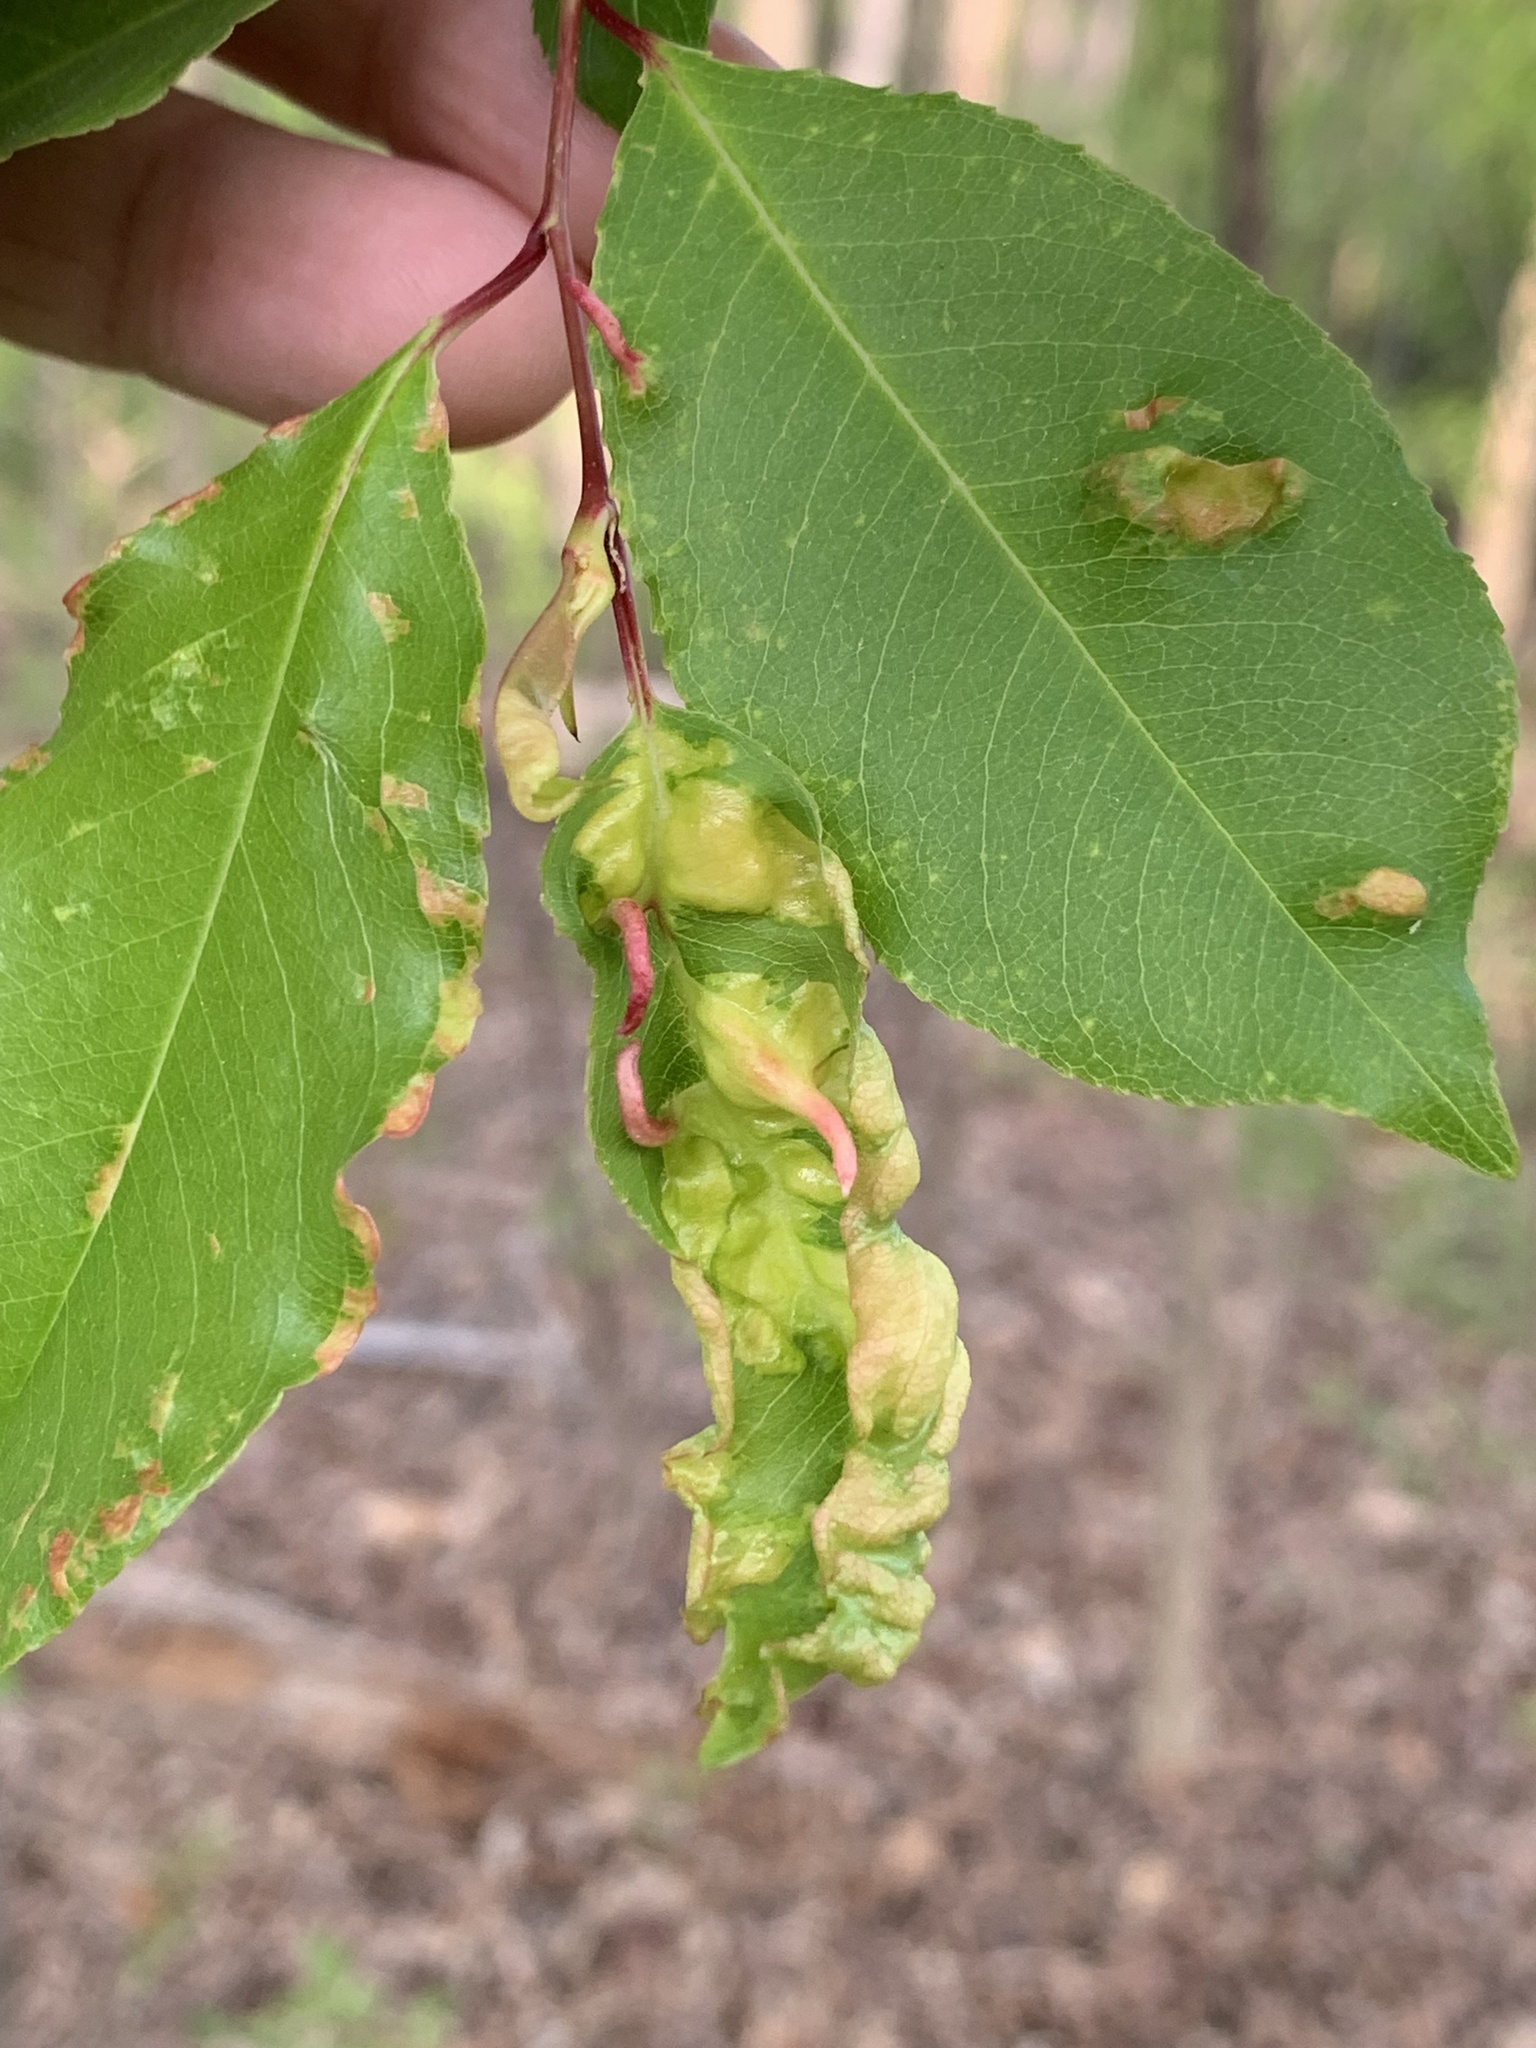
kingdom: Fungi
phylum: Ascomycota
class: Taphrinomycetes
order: Taphrinales
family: Taphrinaceae
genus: Taphrina
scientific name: Taphrina farlowii
